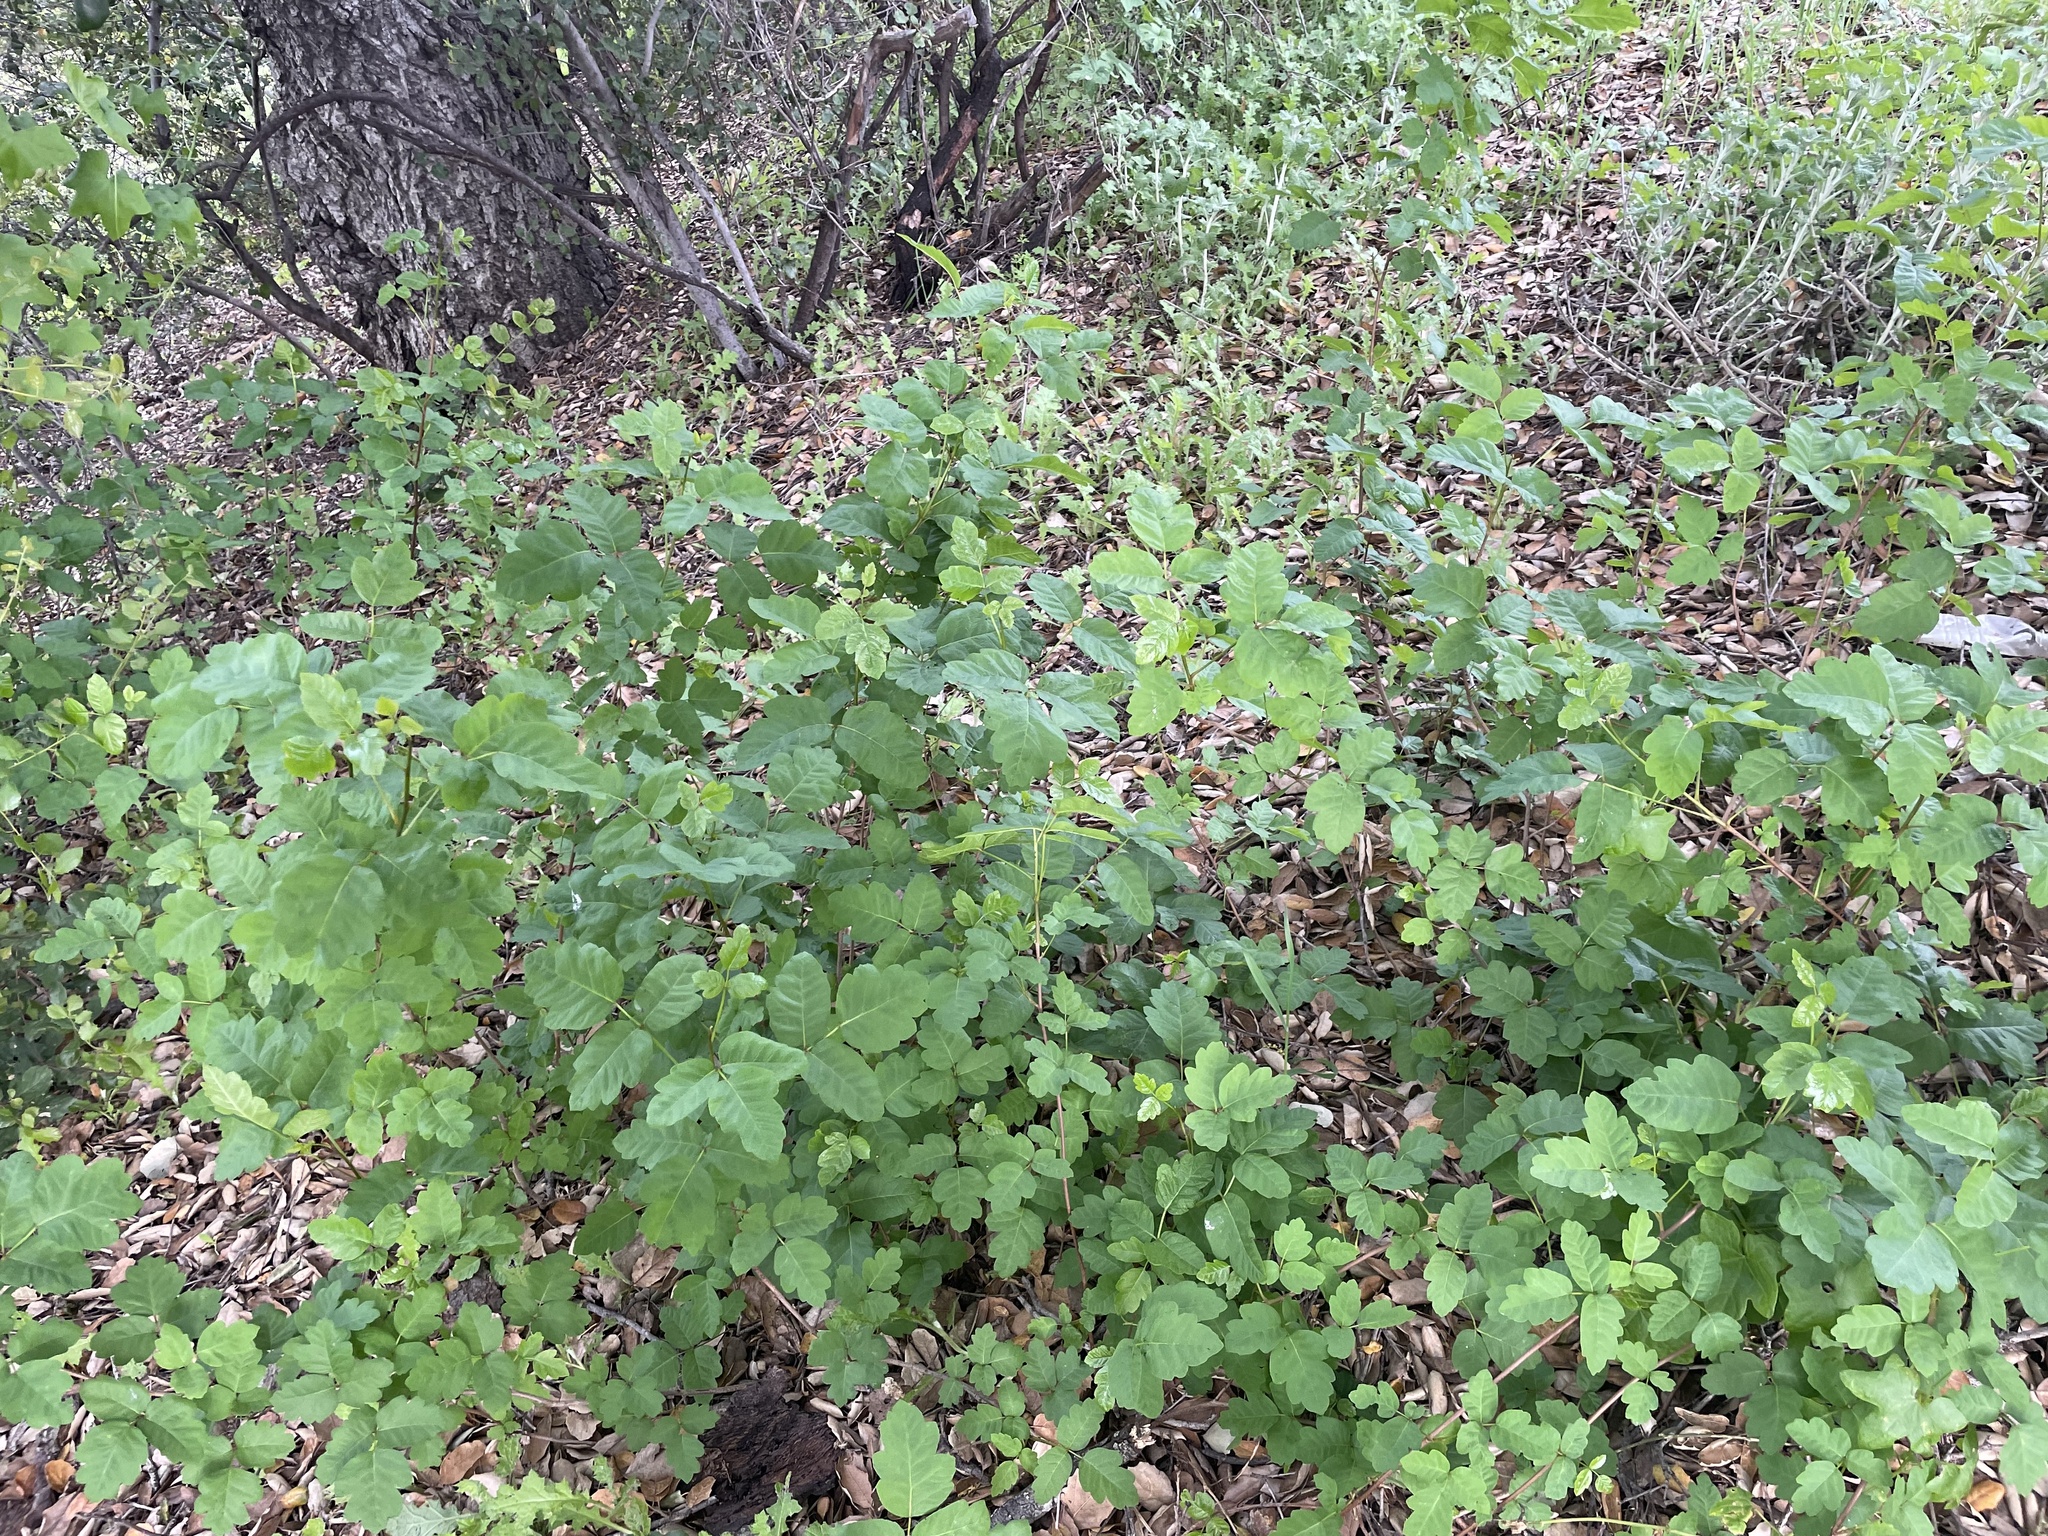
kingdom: Plantae
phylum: Tracheophyta
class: Magnoliopsida
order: Sapindales
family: Anacardiaceae
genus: Toxicodendron
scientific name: Toxicodendron diversilobum
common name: Pacific poison-oak
